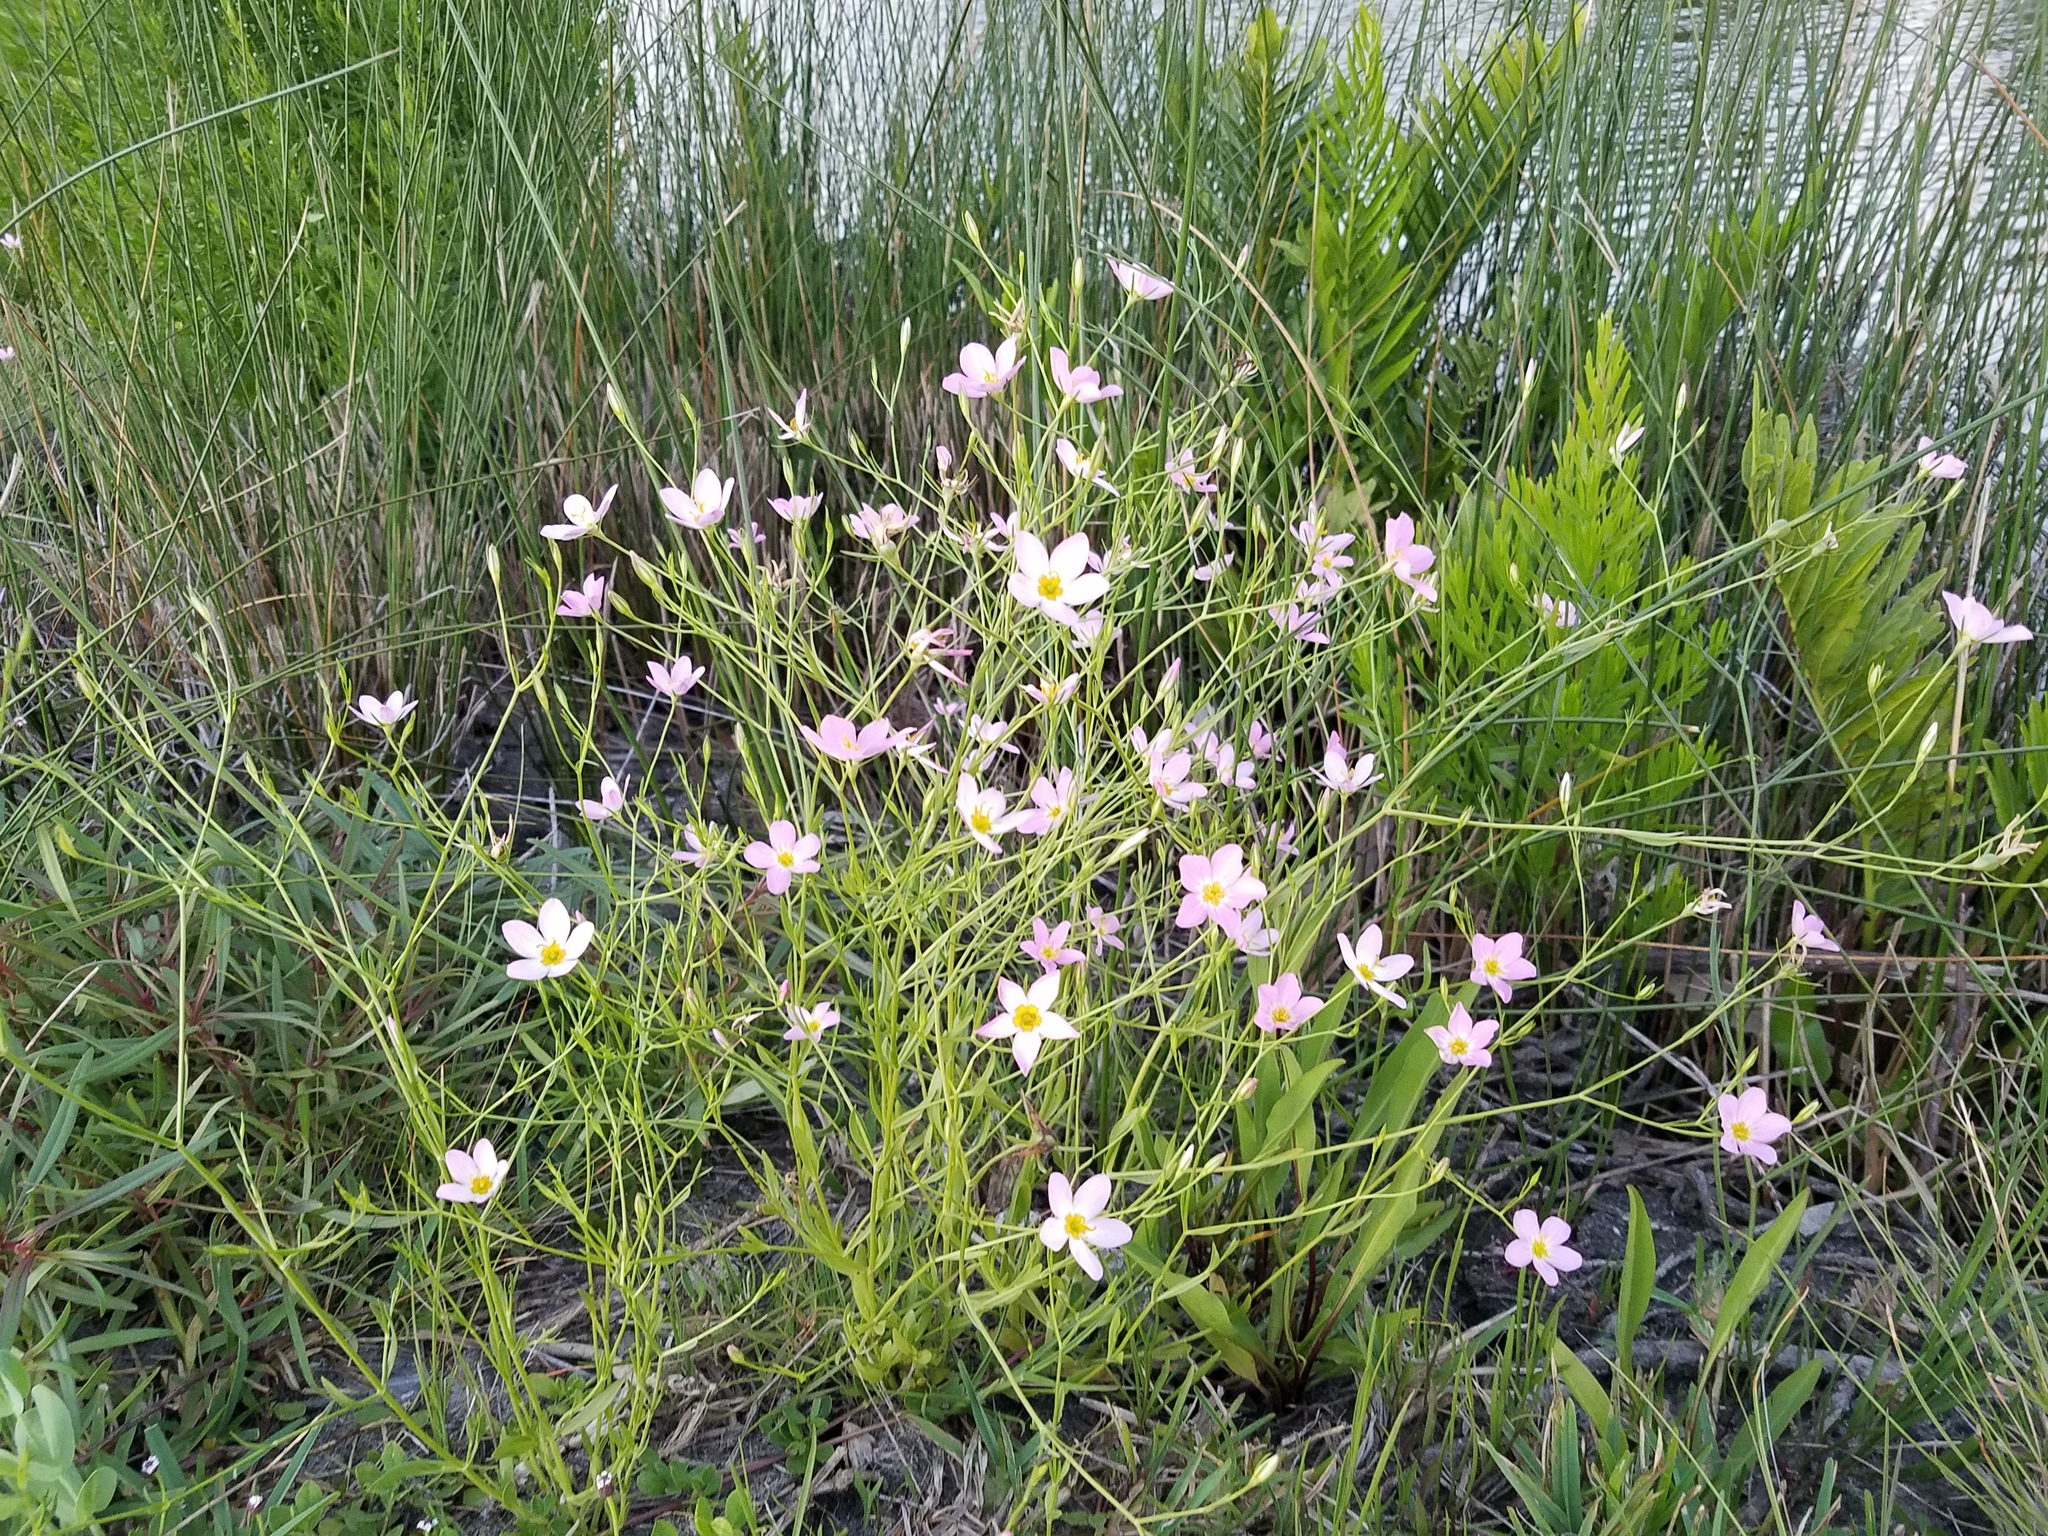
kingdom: Plantae
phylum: Tracheophyta
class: Magnoliopsida
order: Gentianales
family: Gentianaceae
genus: Sabatia
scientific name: Sabatia stellaris
